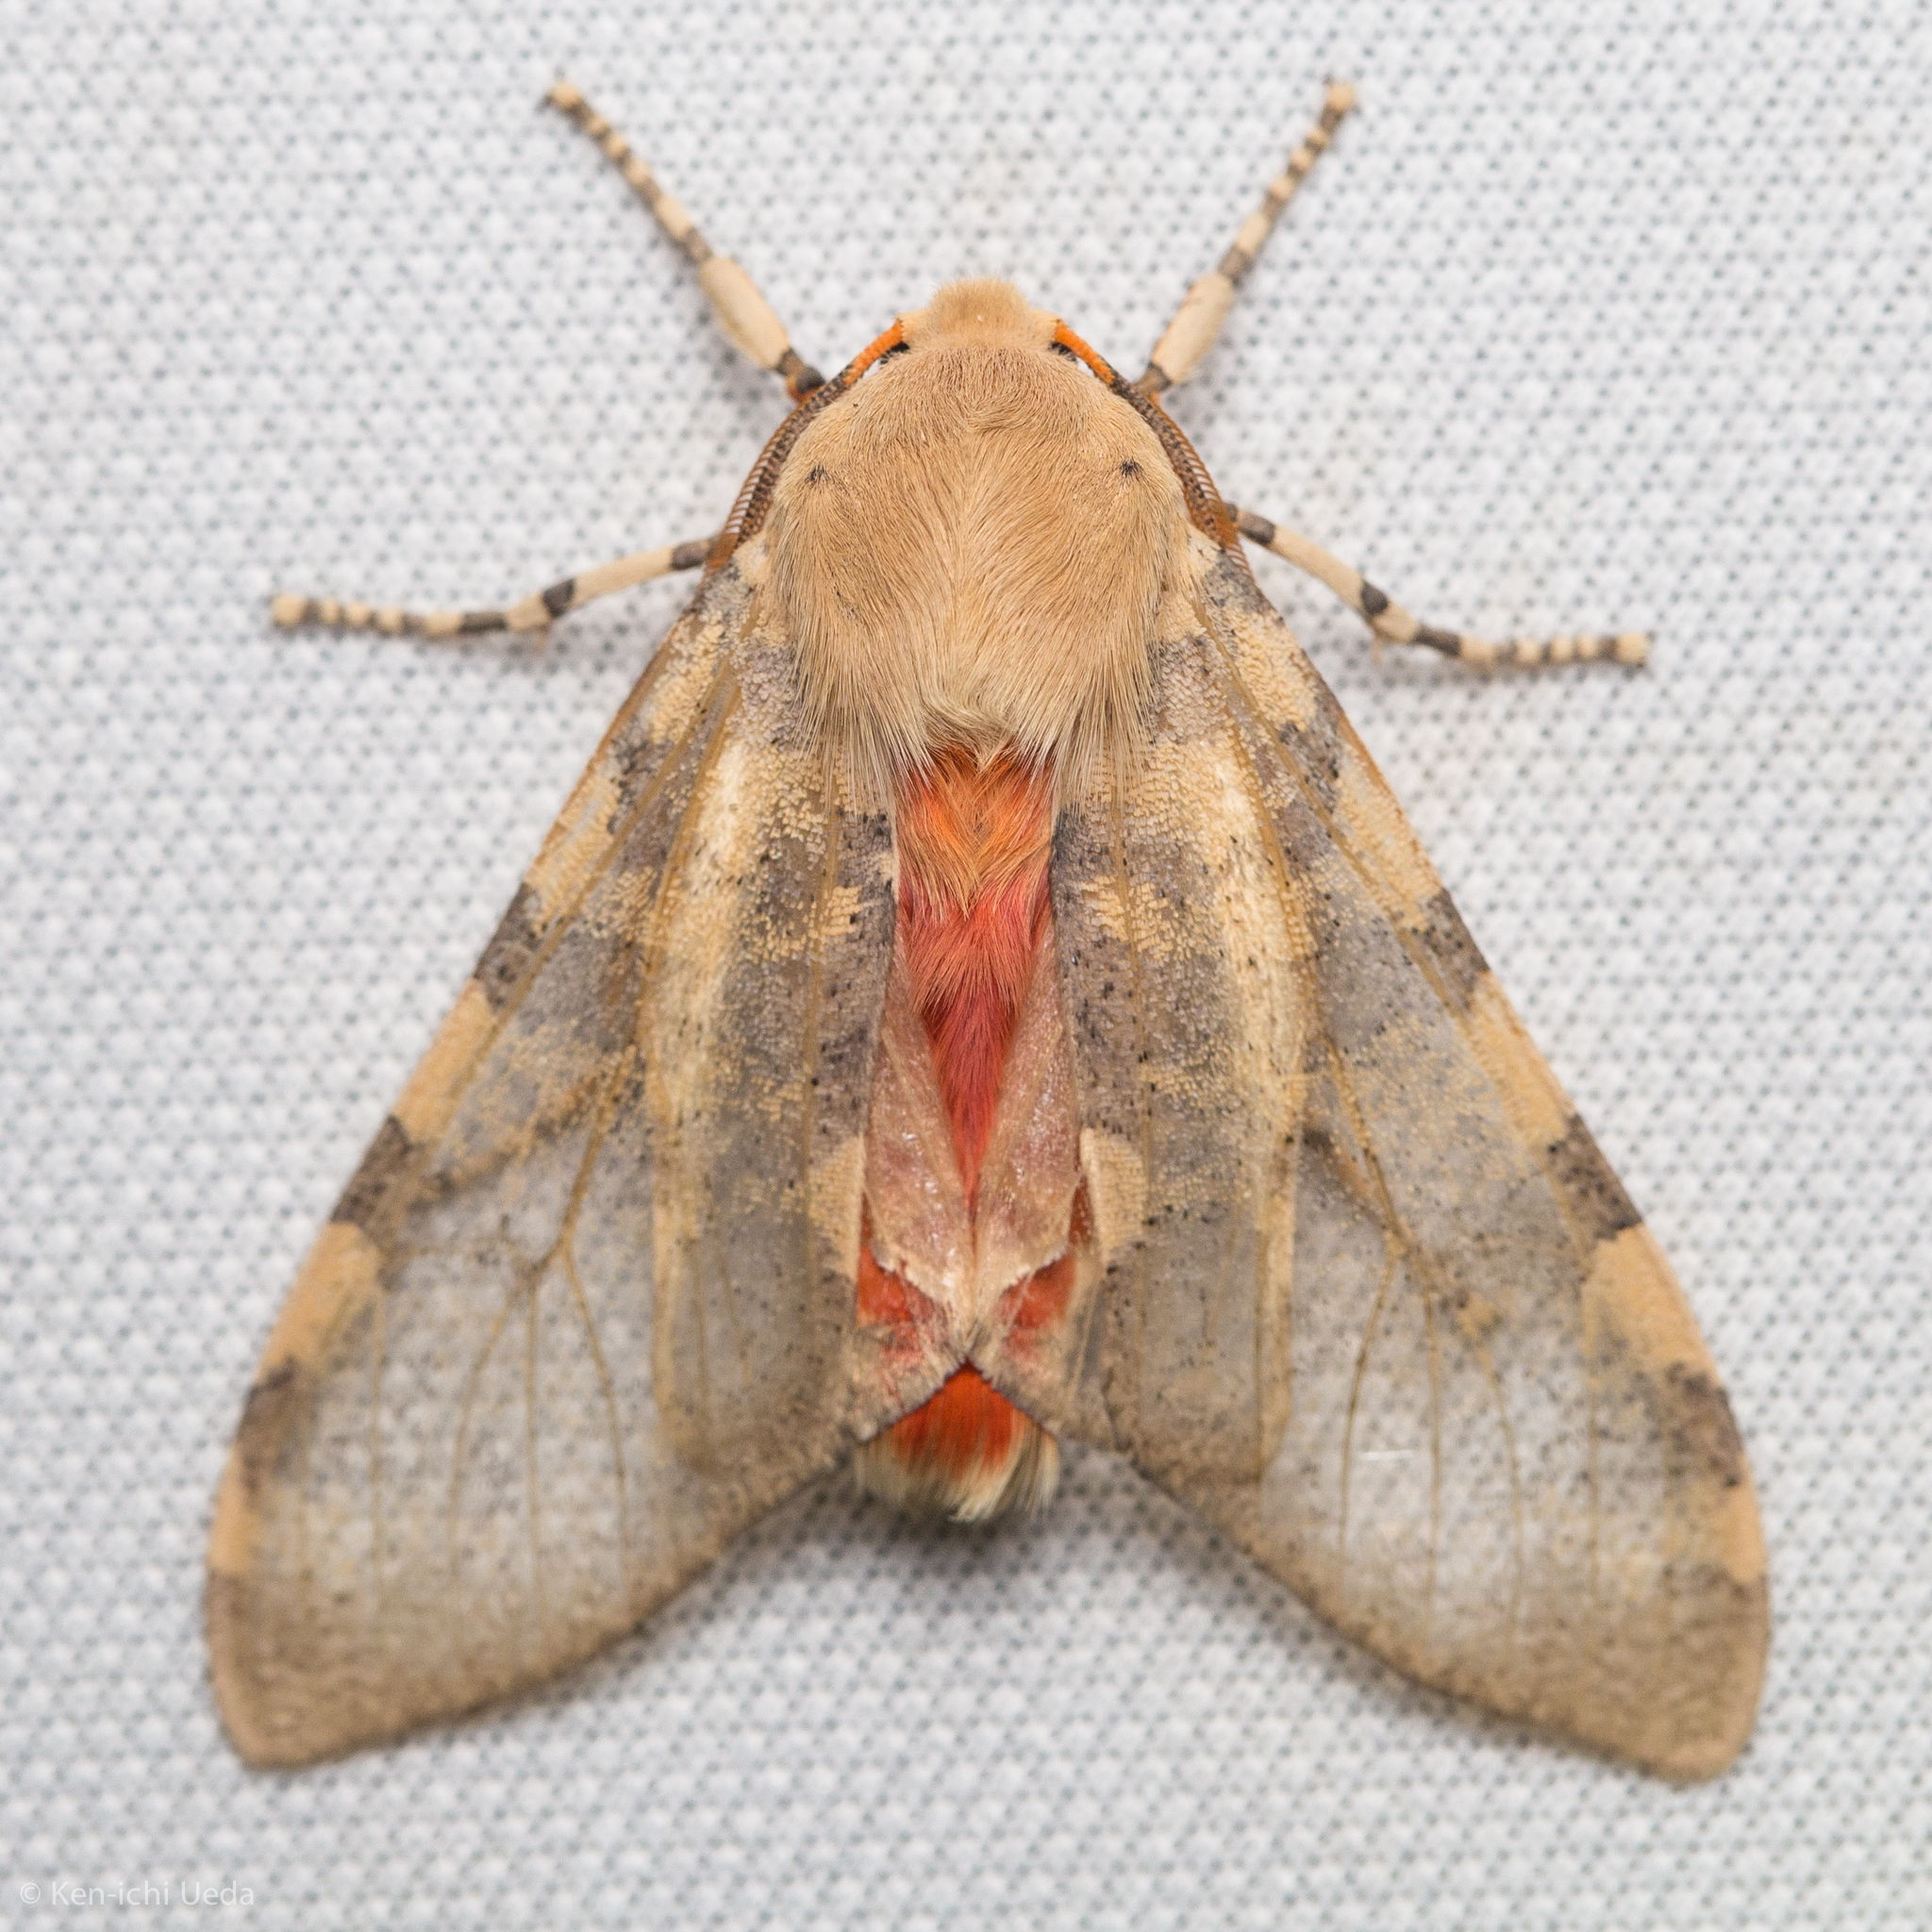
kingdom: Animalia
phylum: Arthropoda
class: Insecta
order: Lepidoptera
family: Erebidae
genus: Hemihyalea
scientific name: Hemihyalea edwardsii
